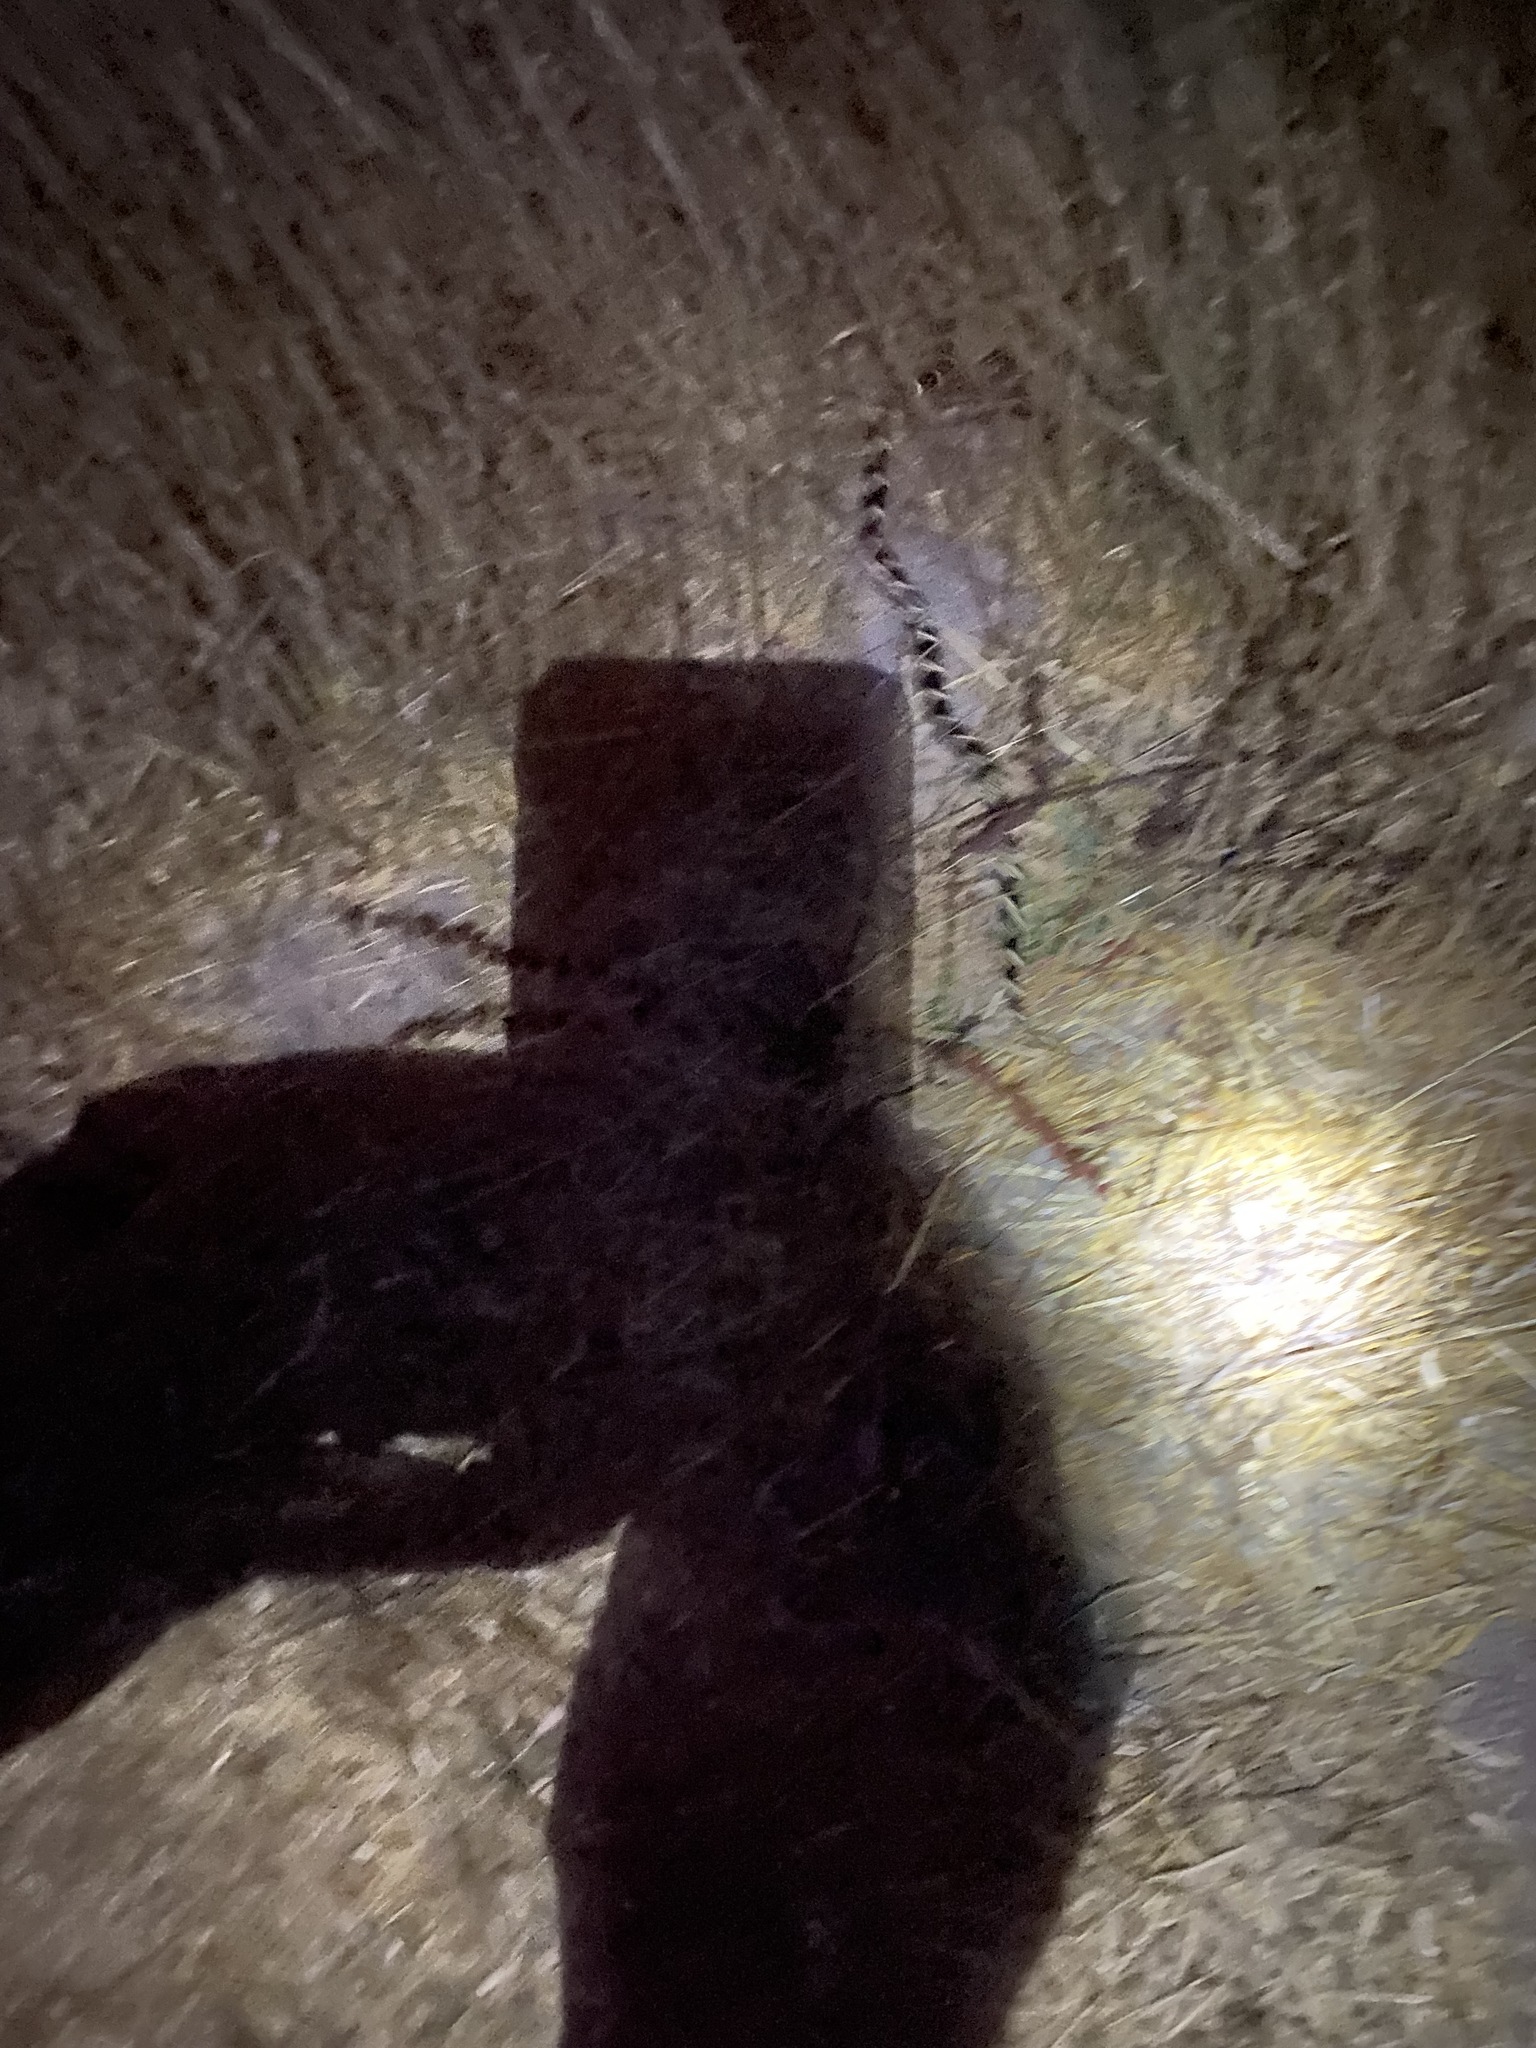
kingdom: Animalia
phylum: Chordata
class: Squamata
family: Colubridae
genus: Lampropeltis
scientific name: Lampropeltis californiae
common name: California kingsnake
